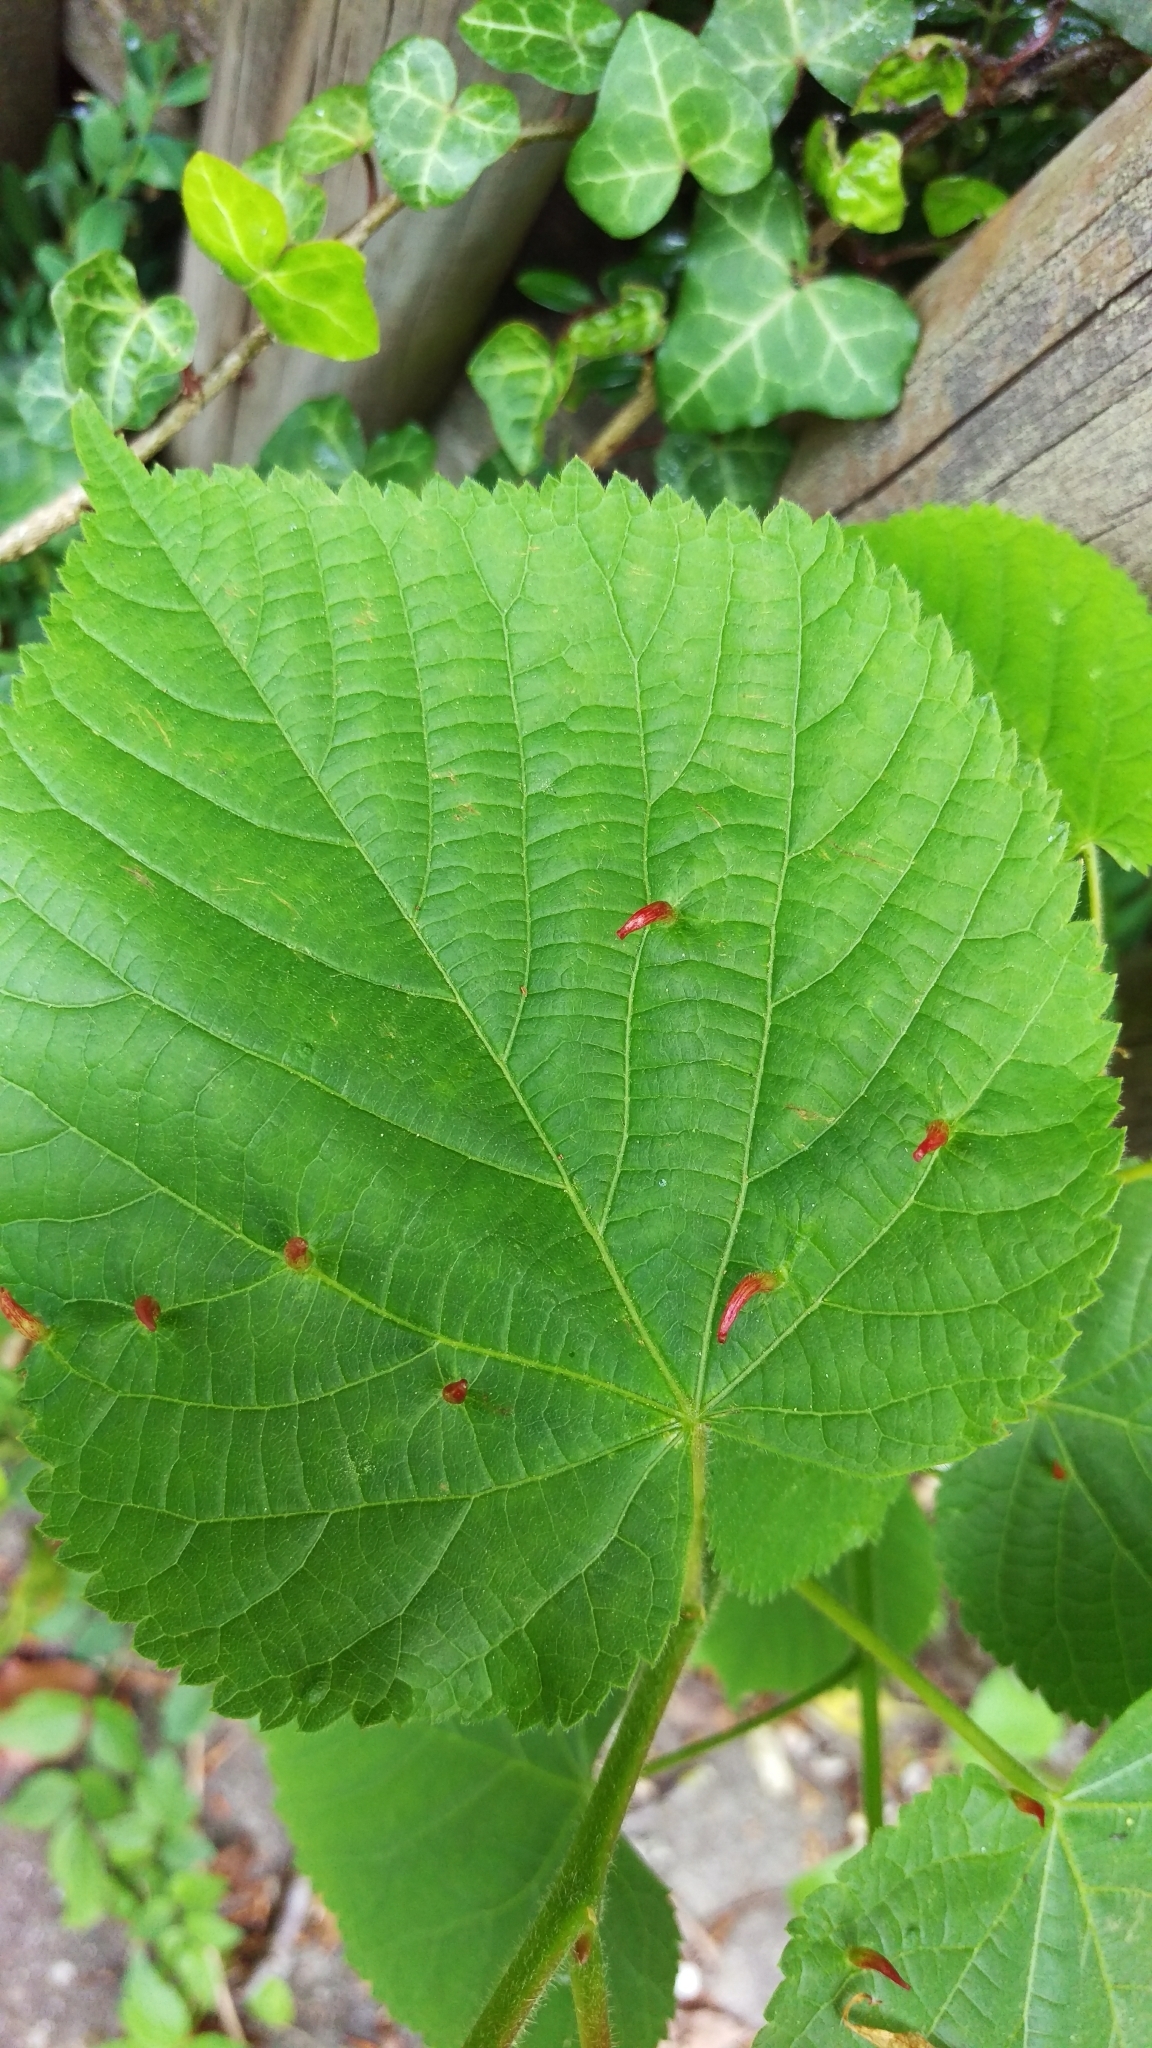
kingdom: Animalia
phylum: Arthropoda
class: Arachnida
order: Trombidiformes
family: Eriophyidae
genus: Eriophyes
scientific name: Eriophyes tiliae
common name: Red nail gall mite
